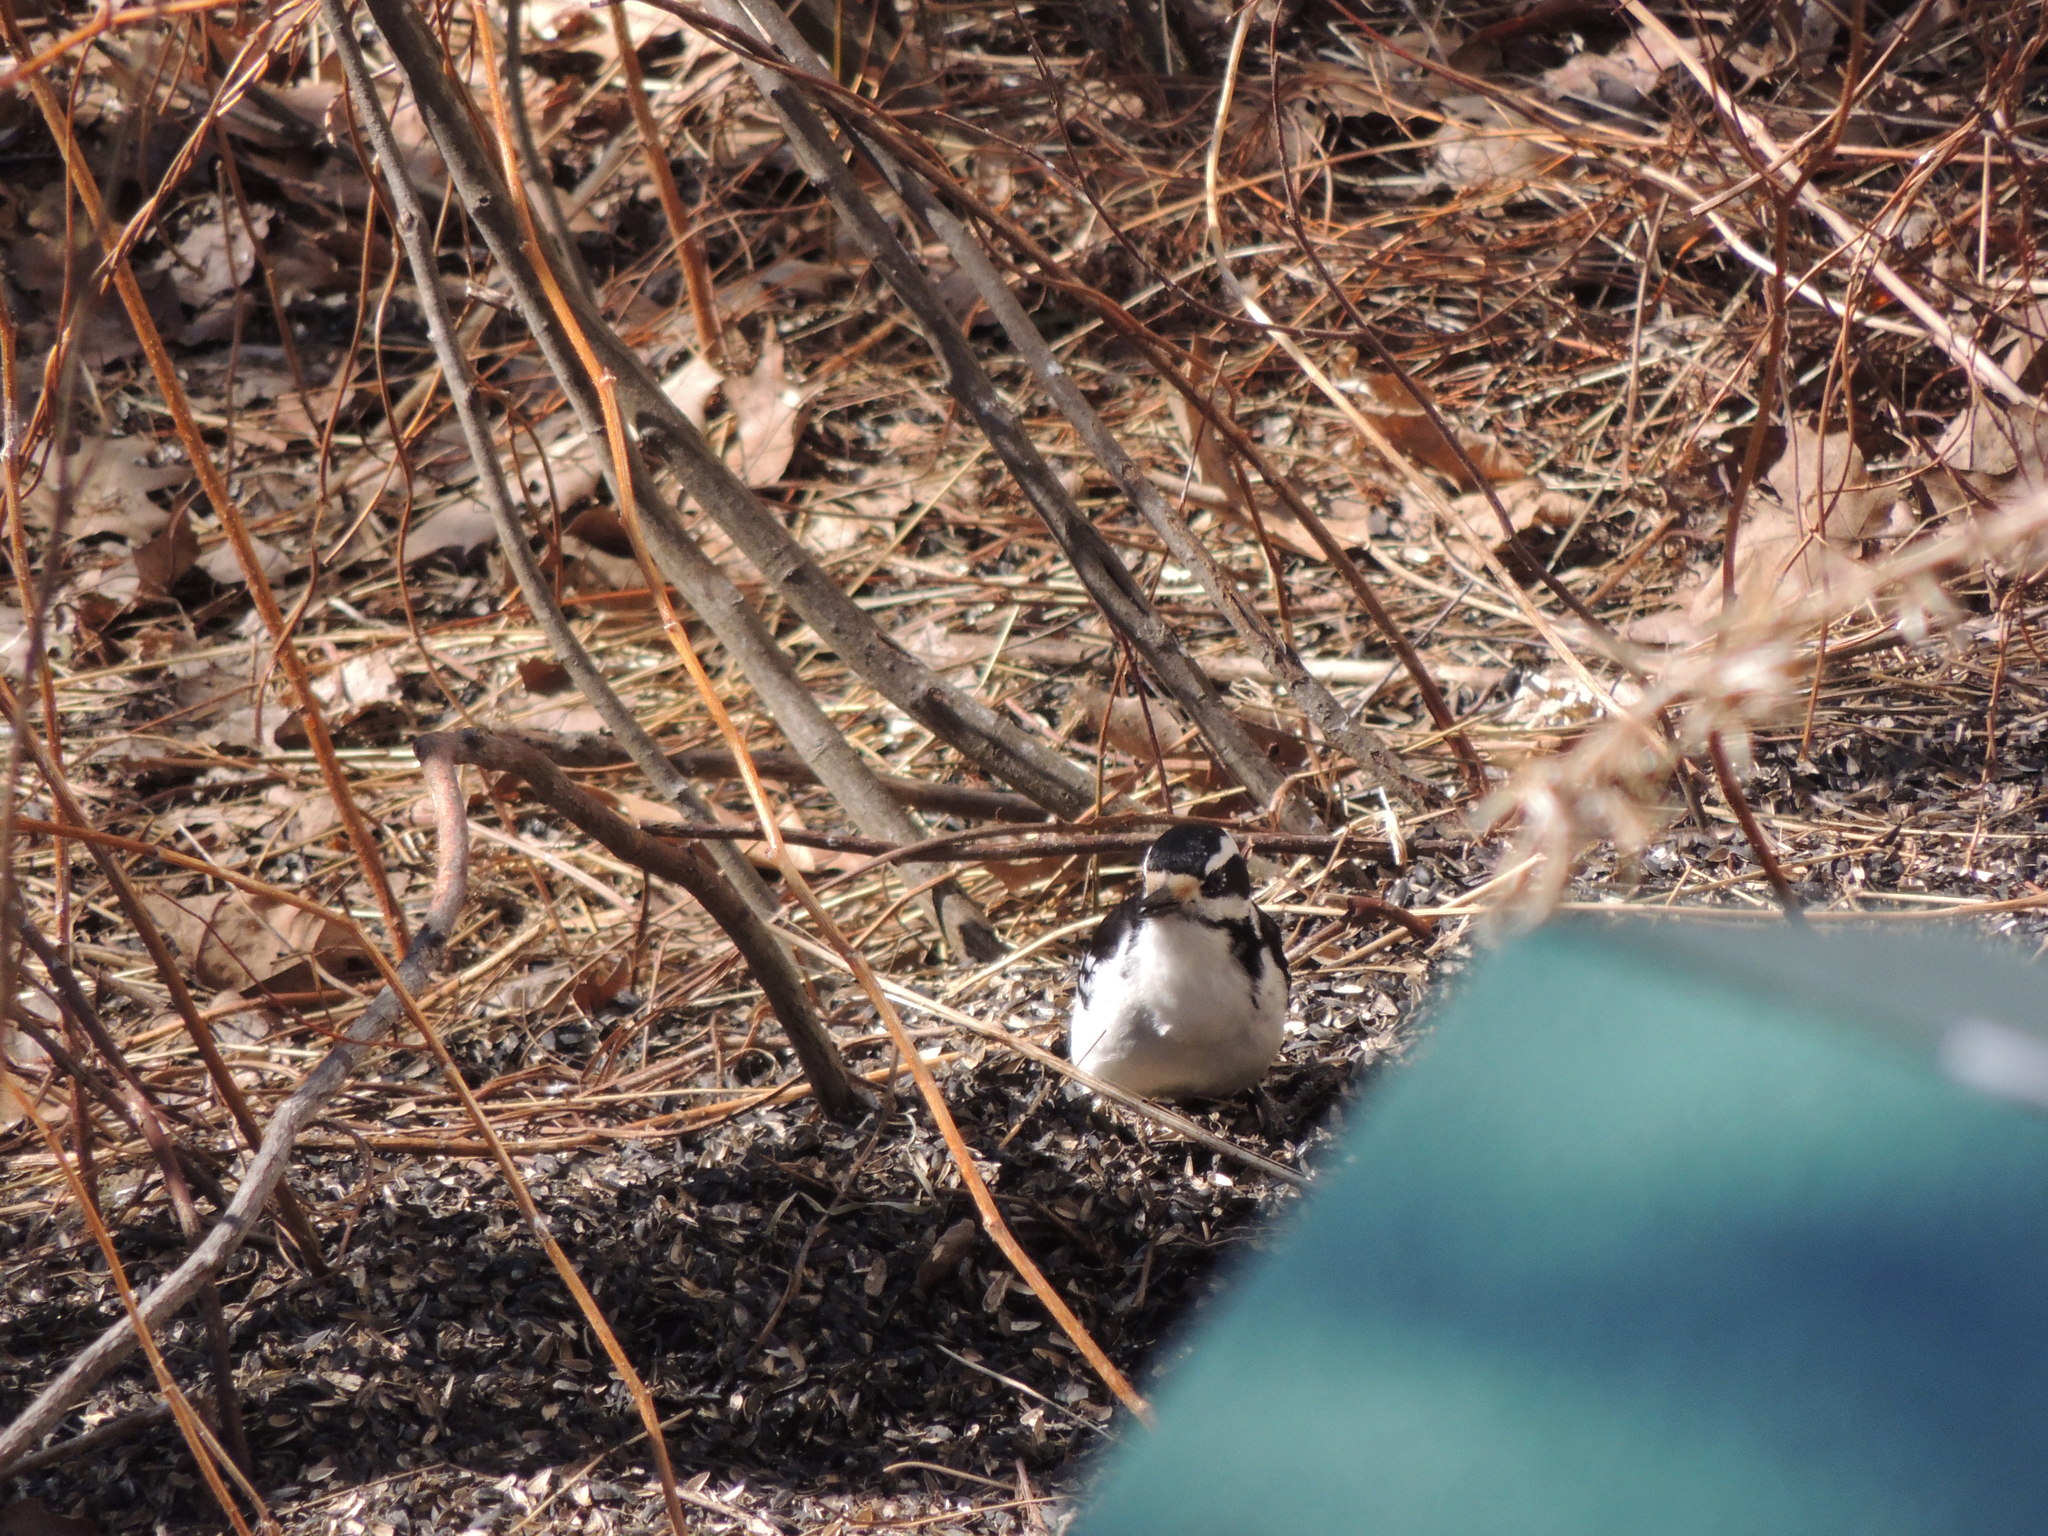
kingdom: Animalia
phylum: Chordata
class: Aves
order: Piciformes
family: Picidae
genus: Leuconotopicus
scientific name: Leuconotopicus villosus
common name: Hairy woodpecker
